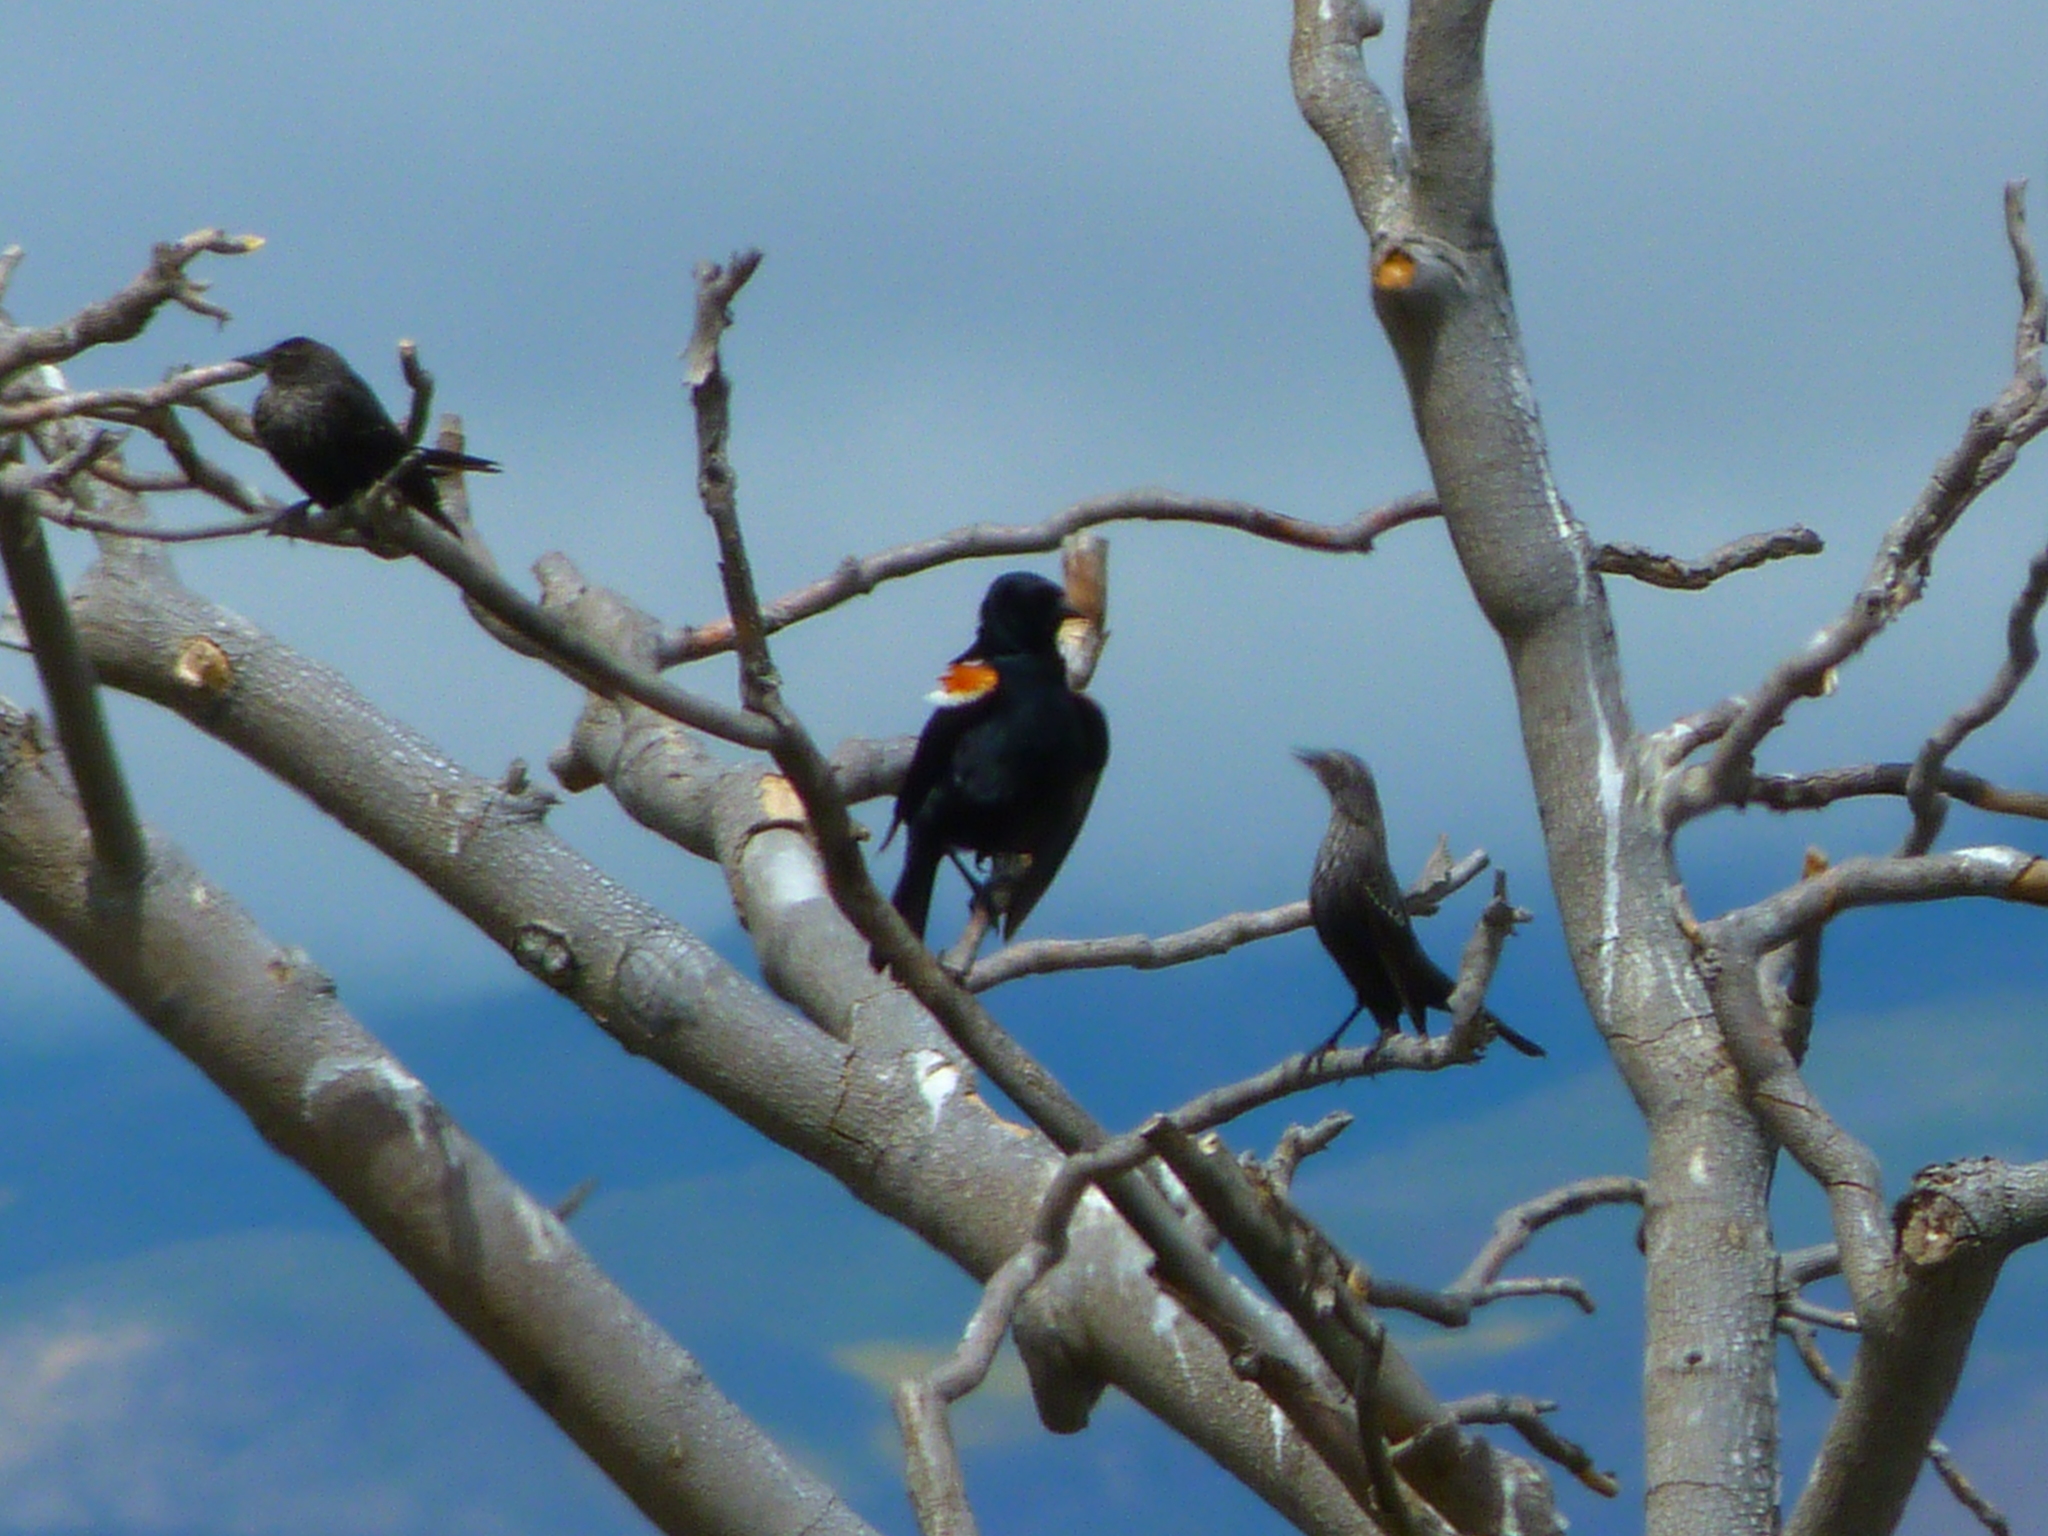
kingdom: Animalia
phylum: Chordata
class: Aves
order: Passeriformes
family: Icteridae
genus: Agelaius
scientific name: Agelaius tricolor
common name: Tricolored blackbird
